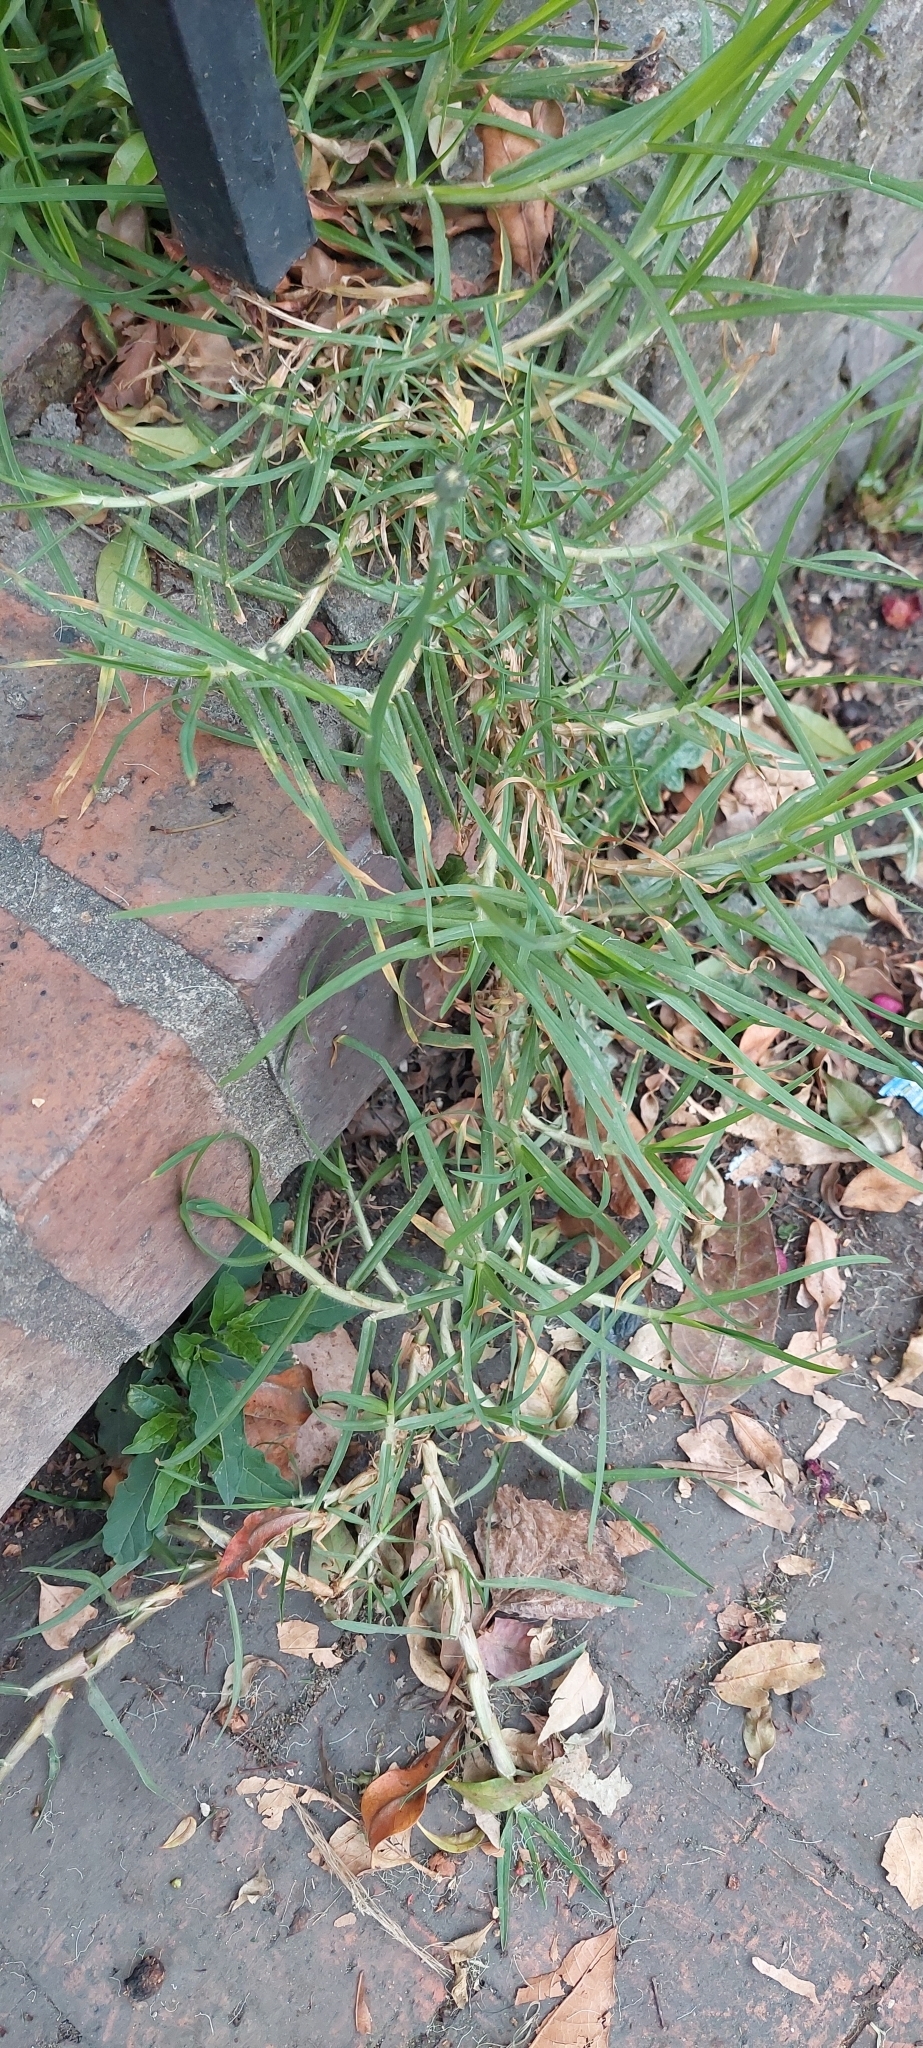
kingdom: Plantae
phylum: Tracheophyta
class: Liliopsida
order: Poales
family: Poaceae
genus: Cenchrus
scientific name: Cenchrus clandestinus
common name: Kikuyugrass
